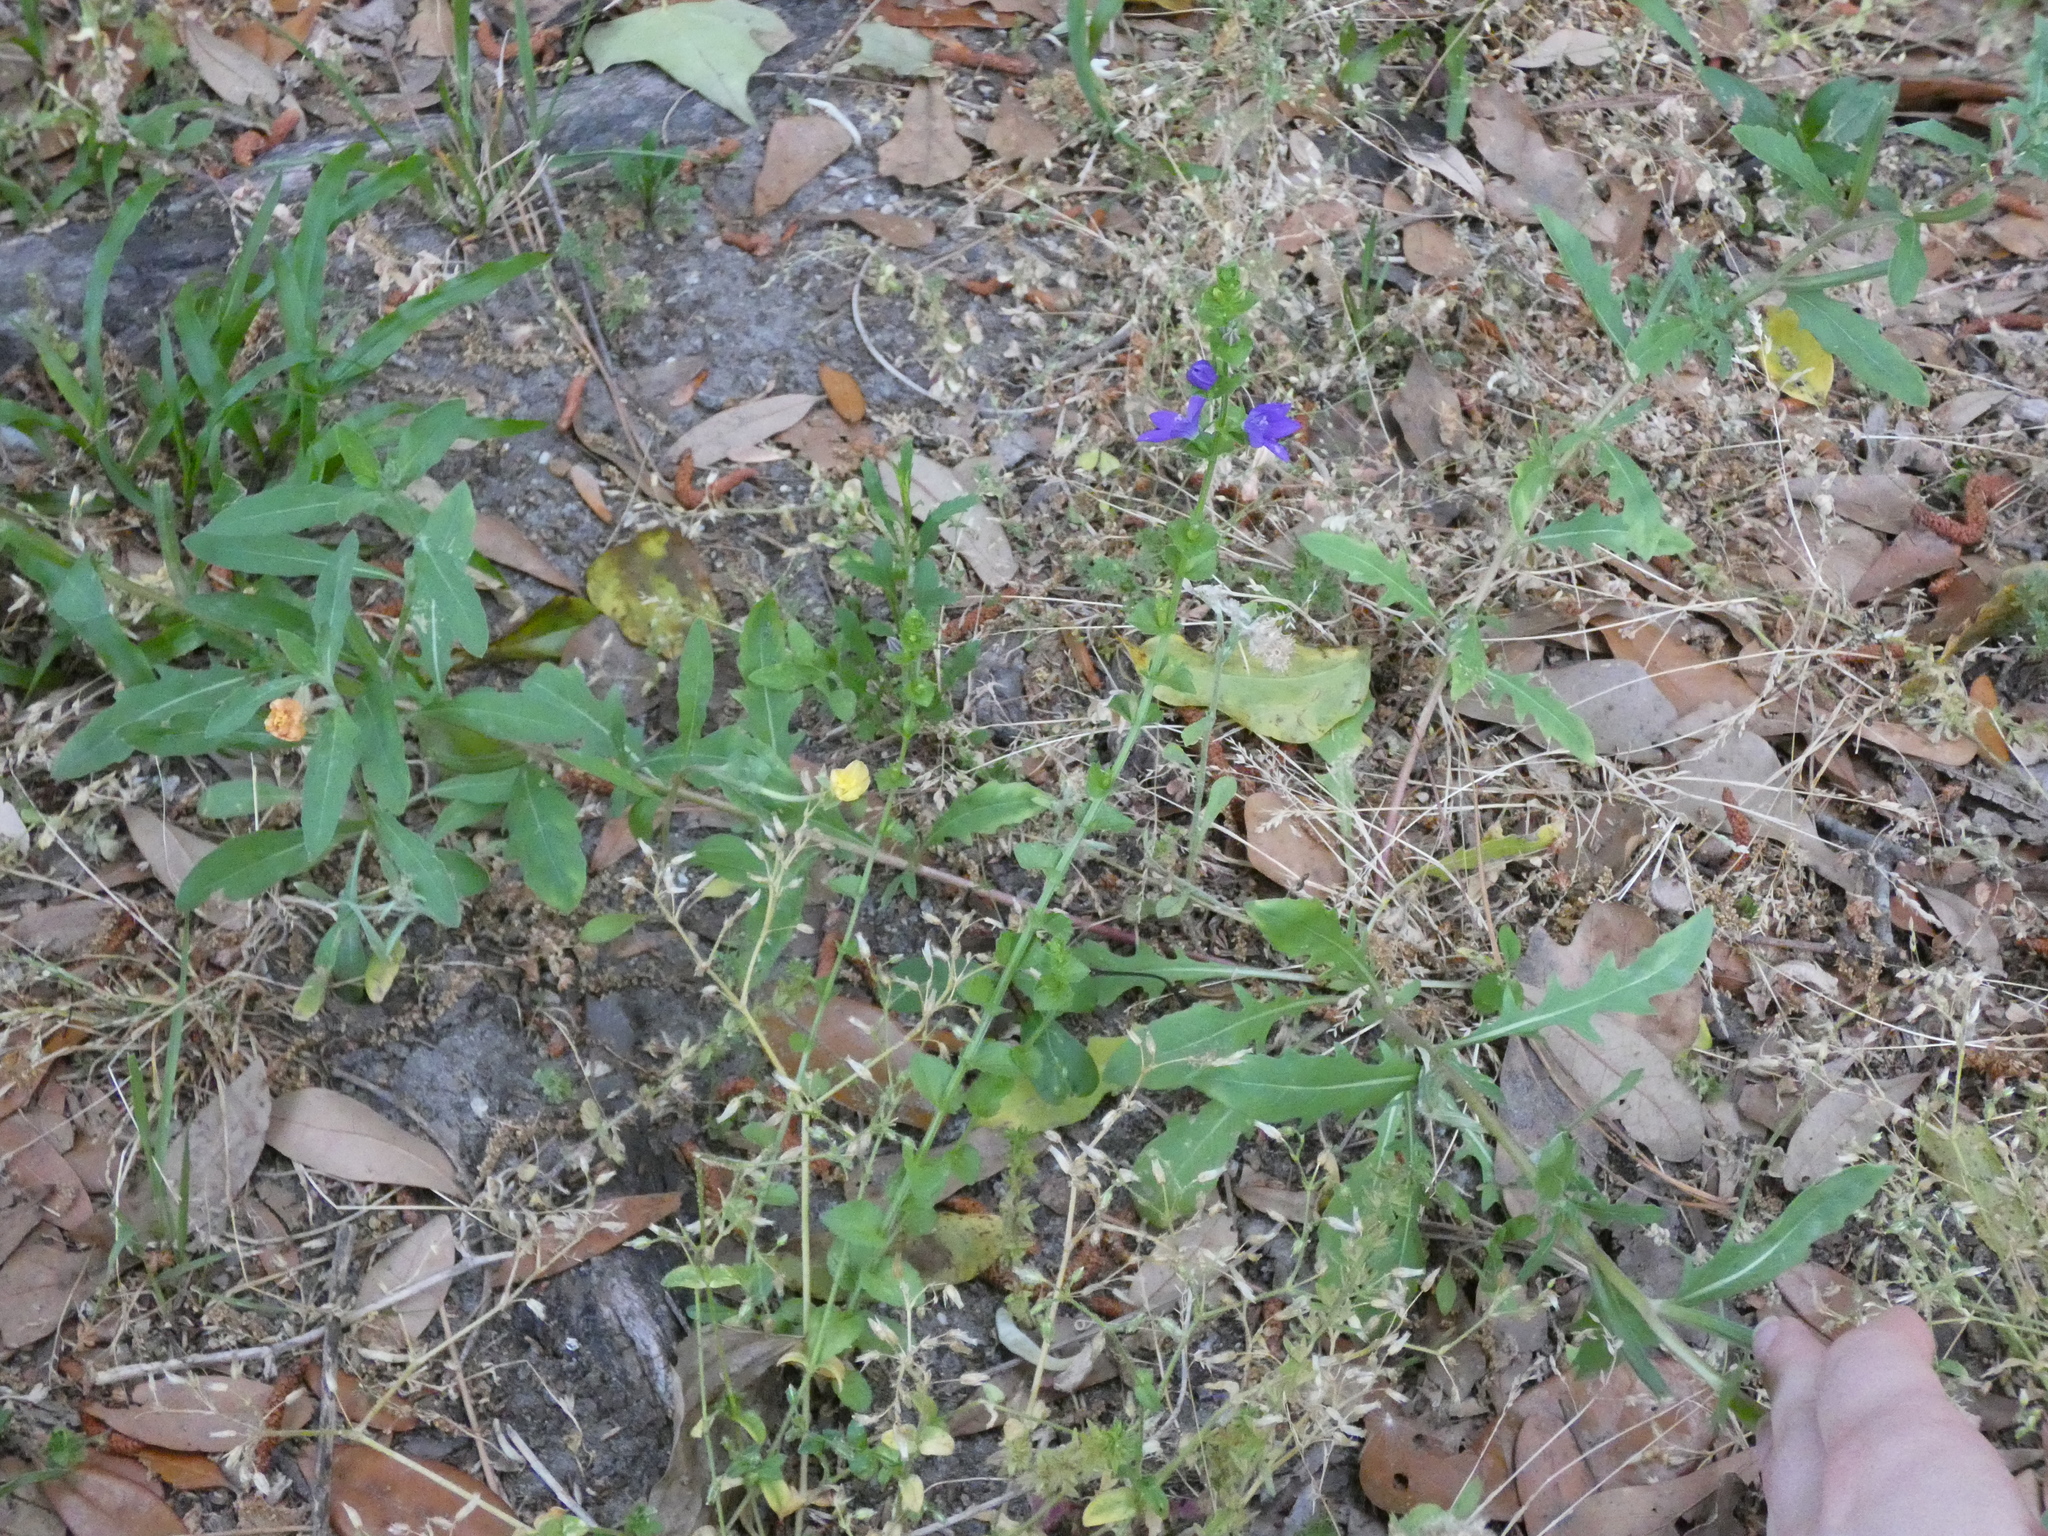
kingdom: Plantae
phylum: Tracheophyta
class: Magnoliopsida
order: Asterales
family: Campanulaceae
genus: Triodanis
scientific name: Triodanis perfoliata
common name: Clasping venus' looking-glass
